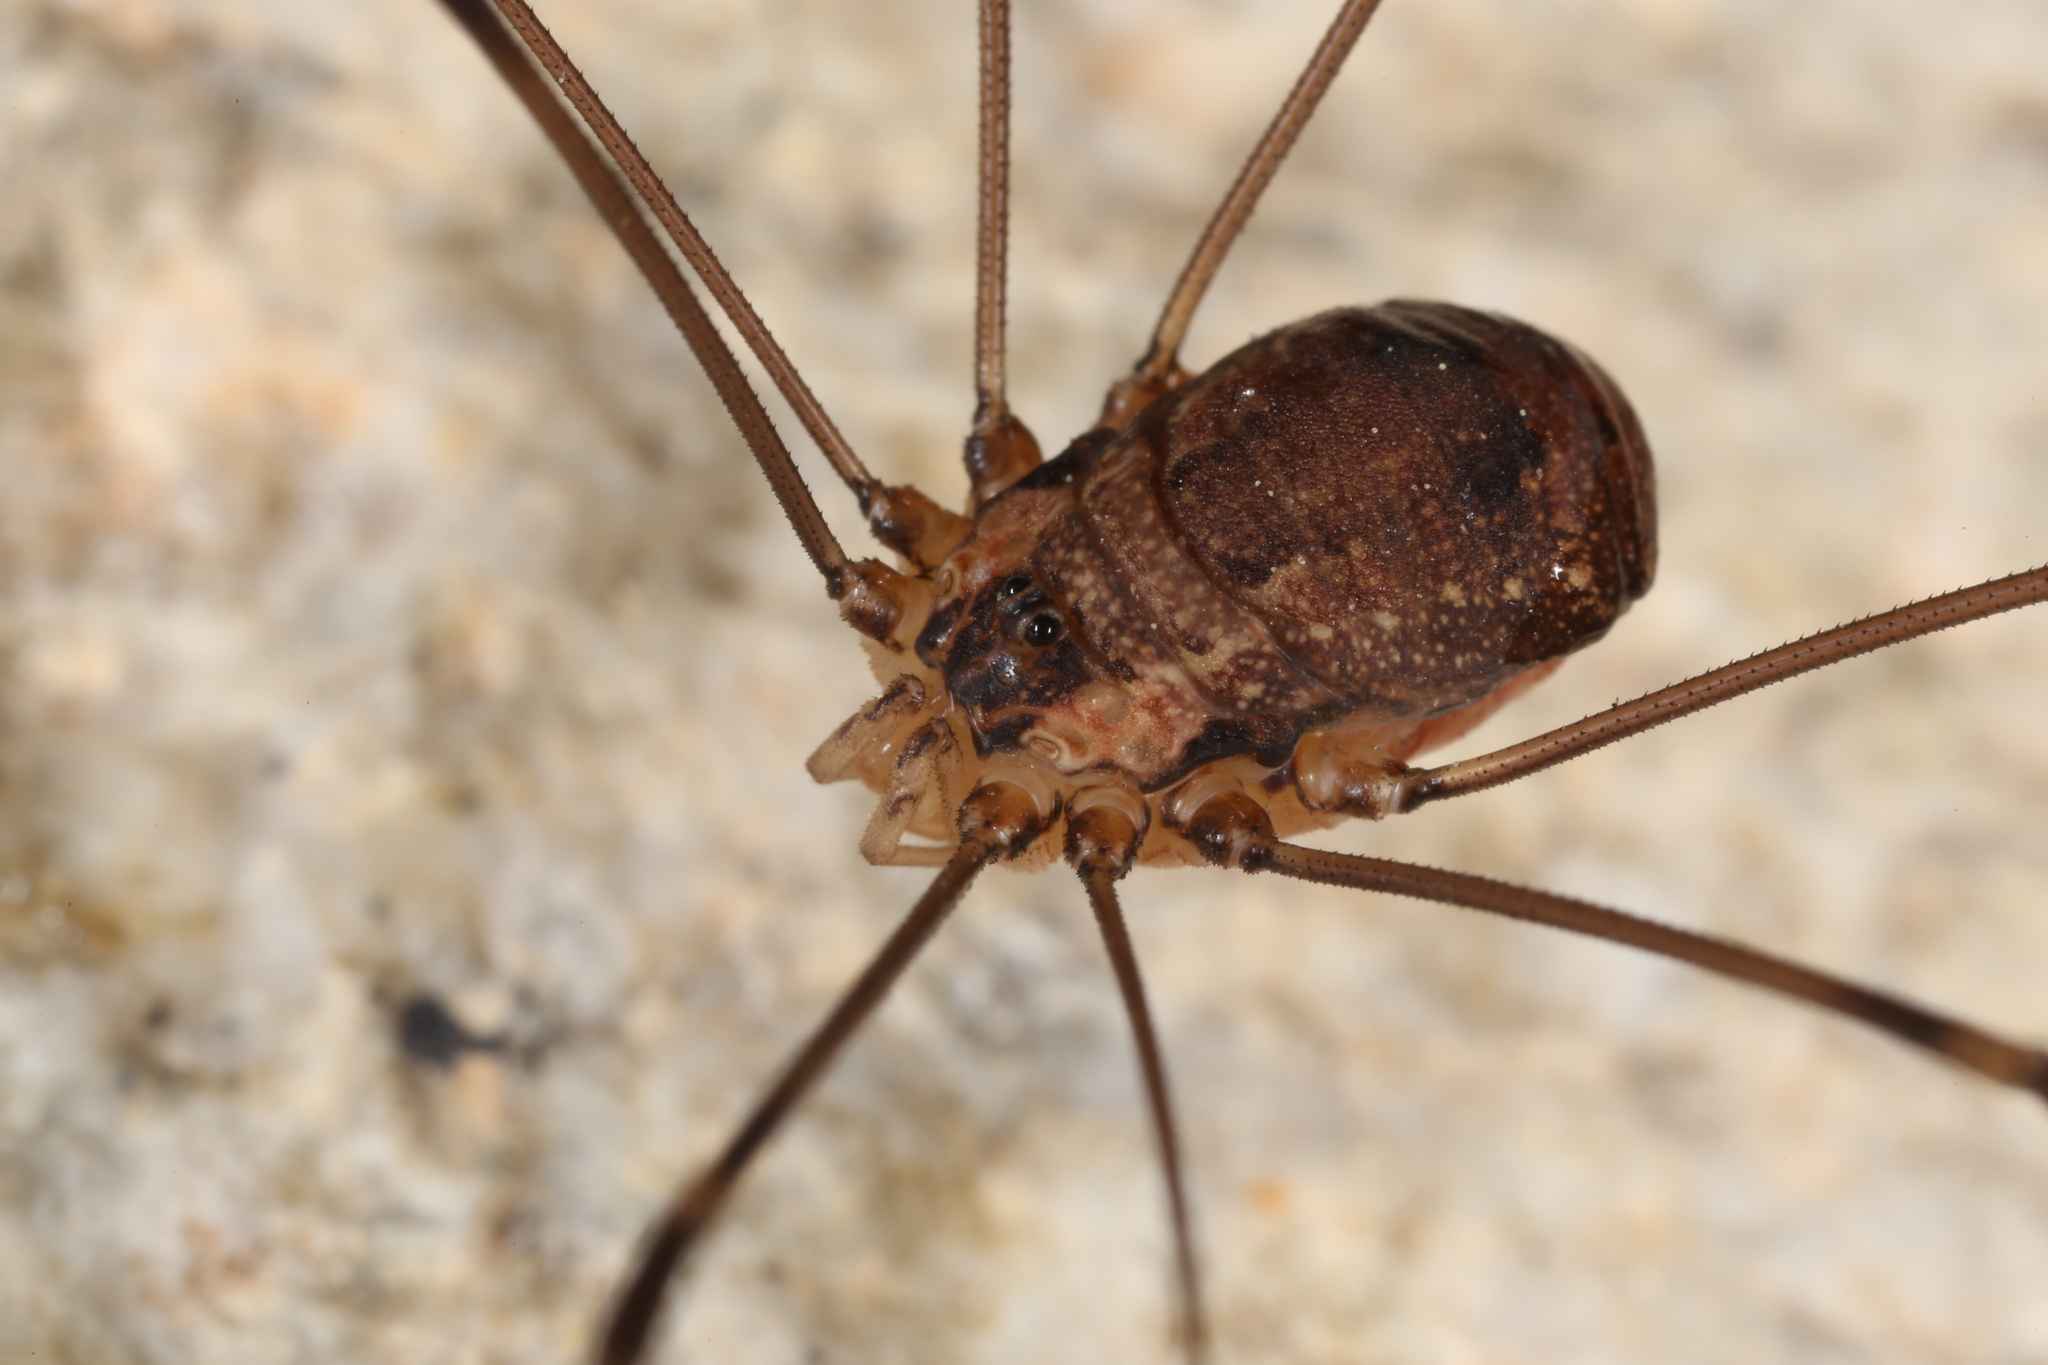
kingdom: Animalia
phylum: Arthropoda
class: Arachnida
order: Opiliones
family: Sclerosomatidae
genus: Leiobunum
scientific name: Leiobunum townsendi
